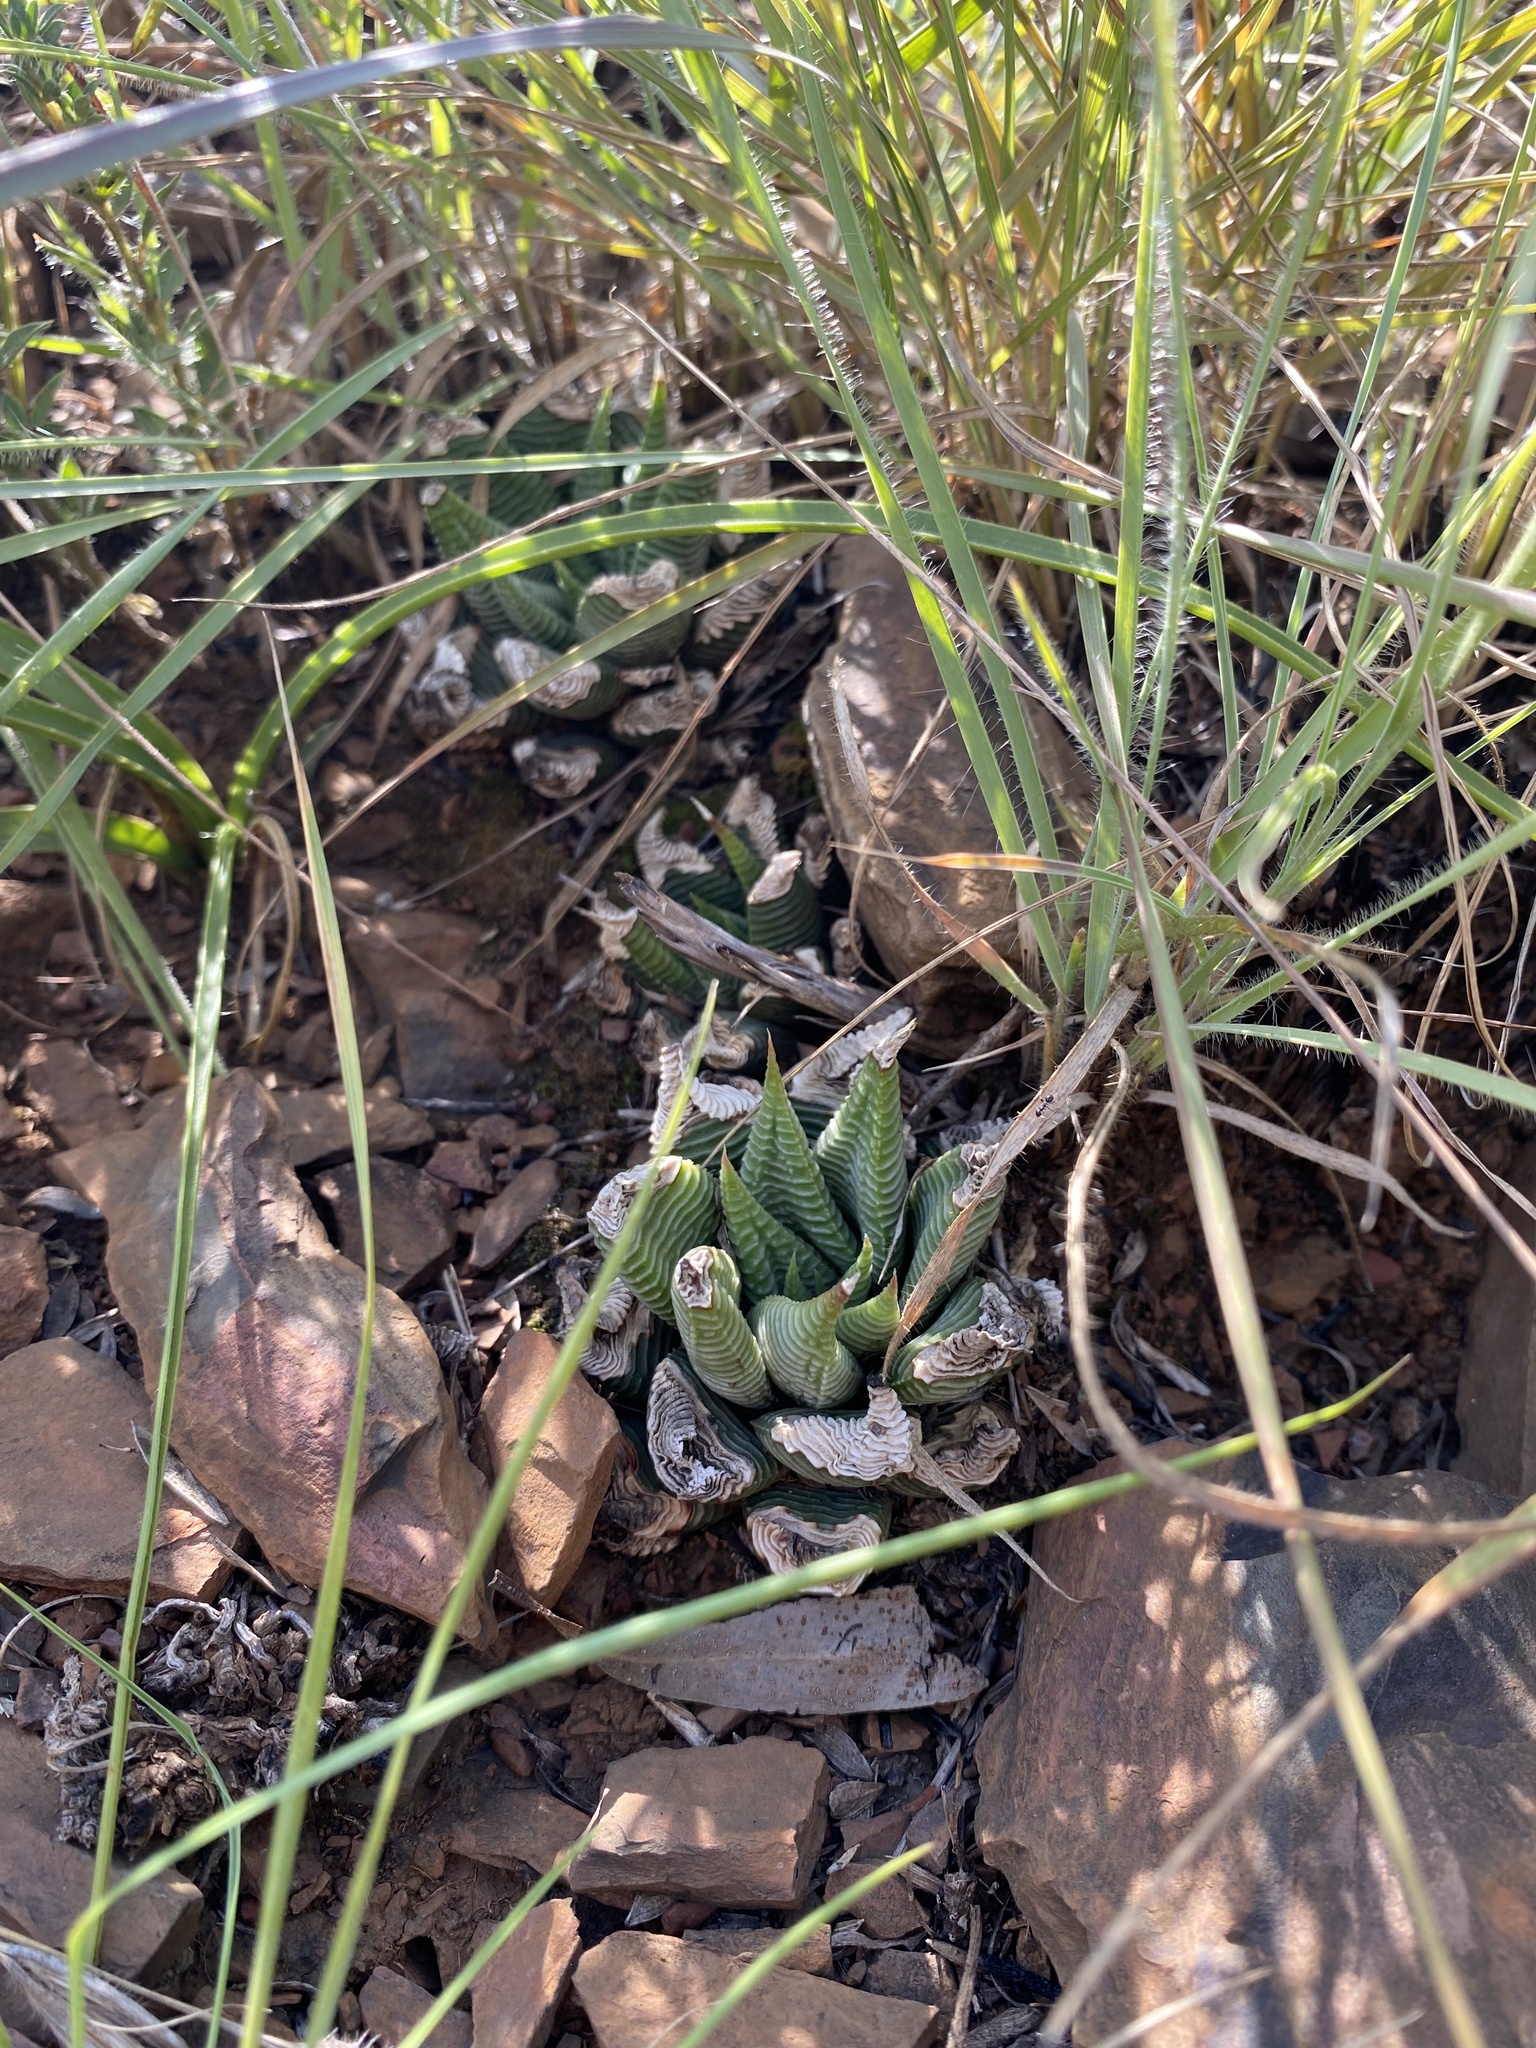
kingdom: Plantae
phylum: Tracheophyta
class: Liliopsida
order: Asparagales
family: Asphodelaceae
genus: Haworthiopsis
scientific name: Haworthiopsis limifolia
